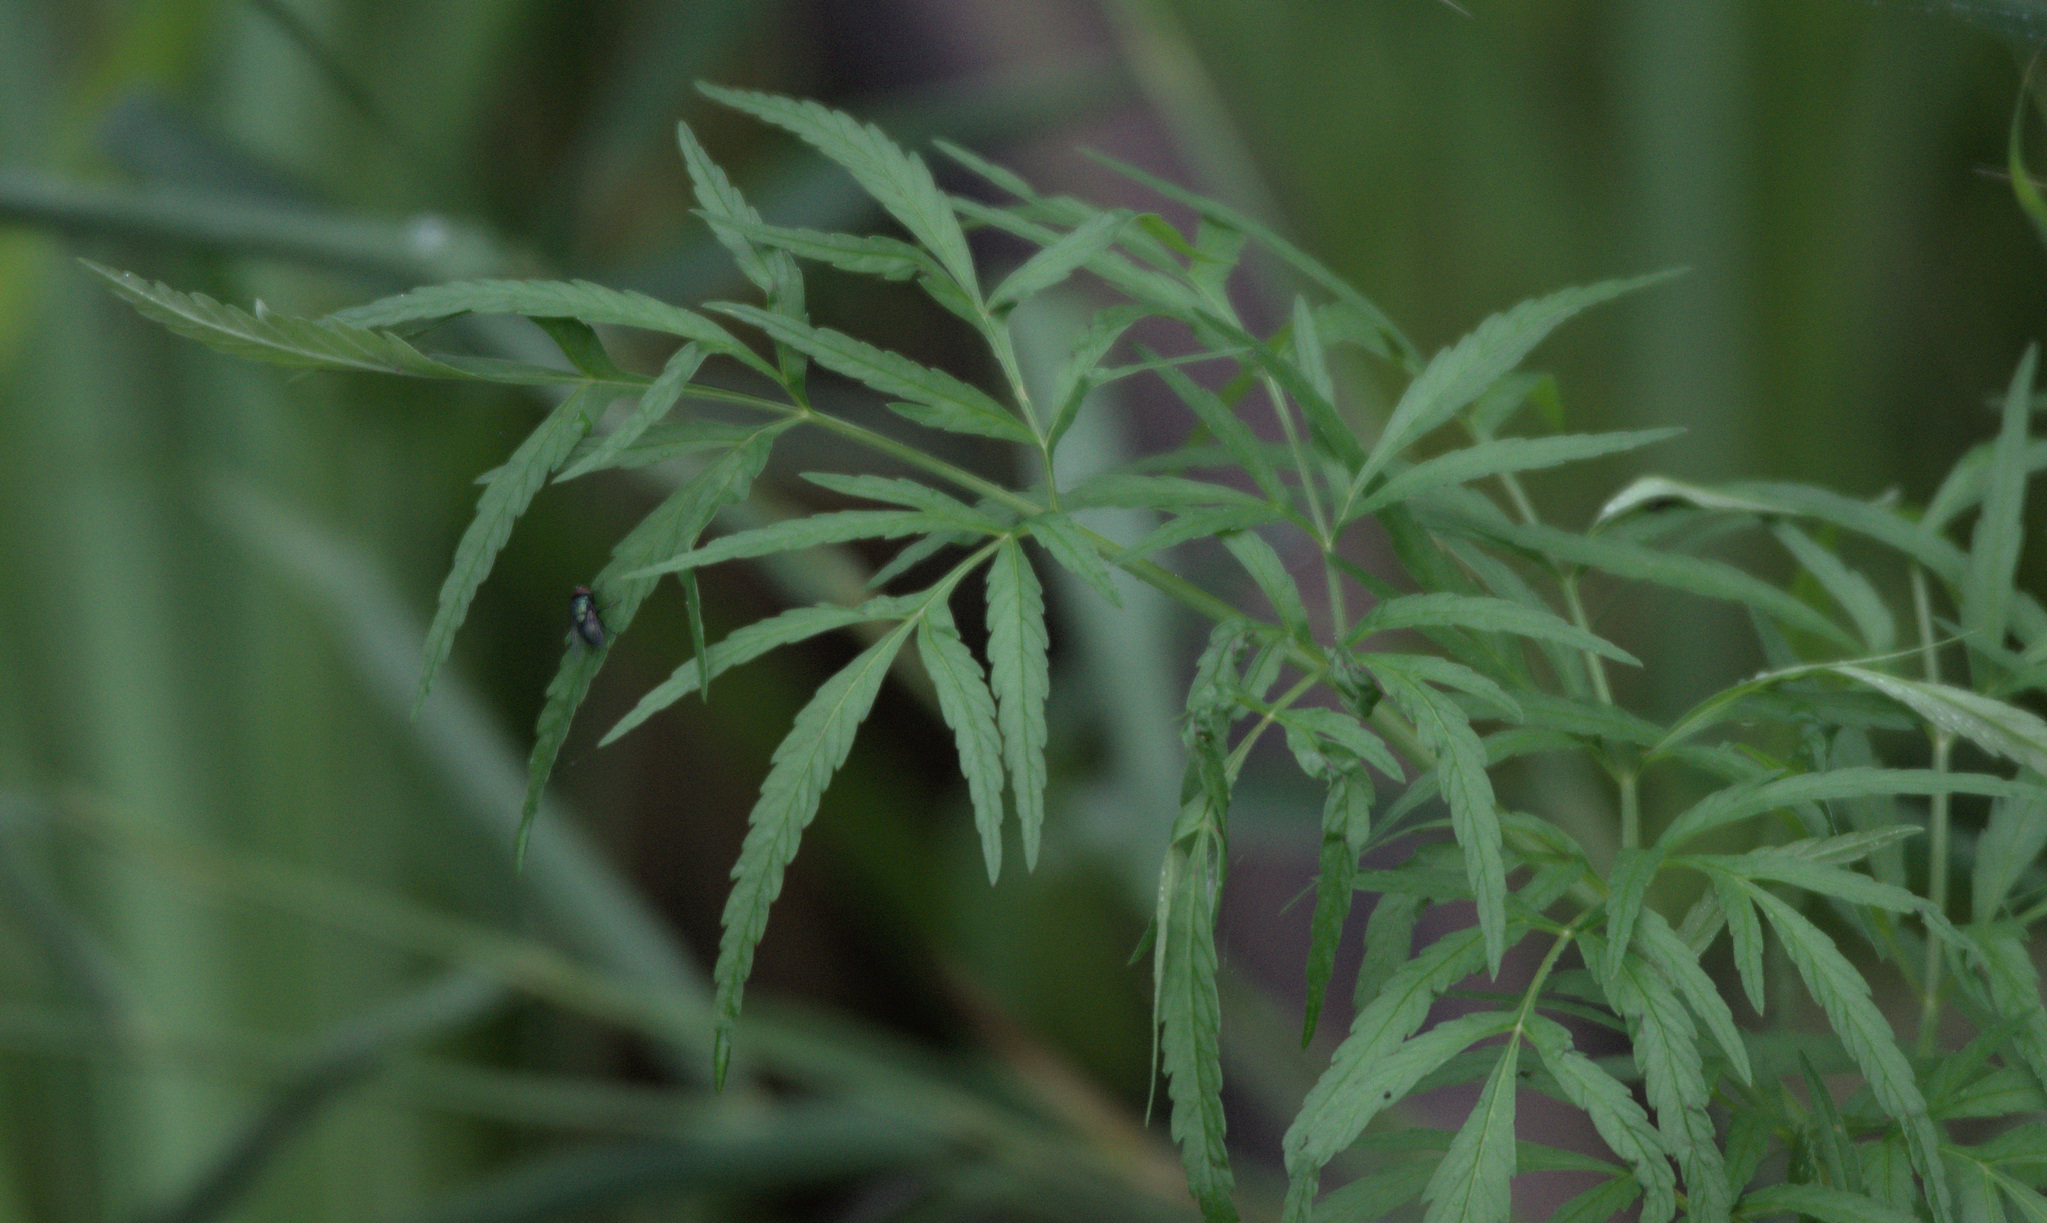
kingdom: Plantae
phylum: Tracheophyta
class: Magnoliopsida
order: Apiales
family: Apiaceae
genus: Cicuta
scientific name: Cicuta virosa
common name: Cowbane
